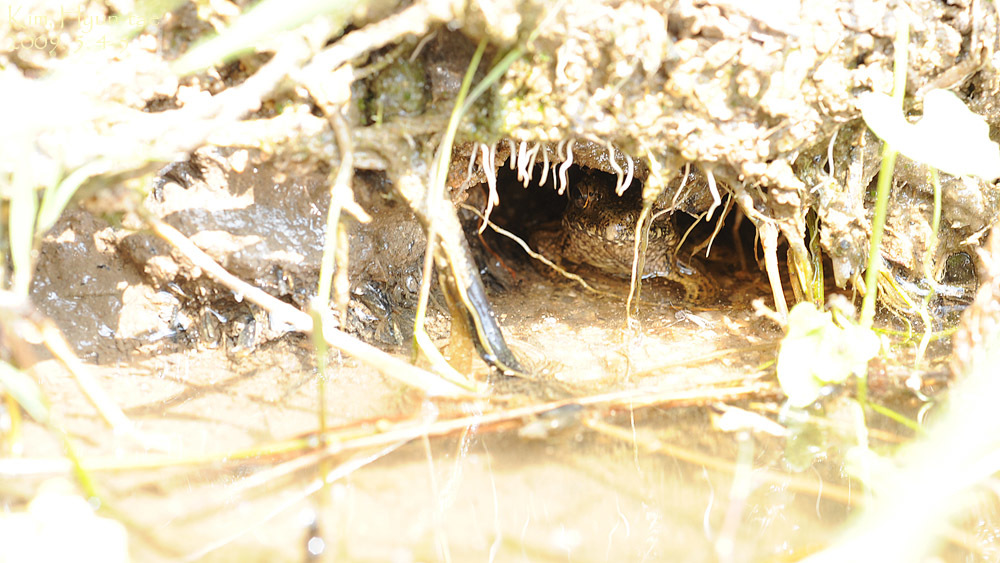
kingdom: Animalia
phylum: Chordata
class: Amphibia
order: Anura
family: Ranidae
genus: Glandirana
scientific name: Glandirana emeljanovi
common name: Northeast china rough-skinned frog
